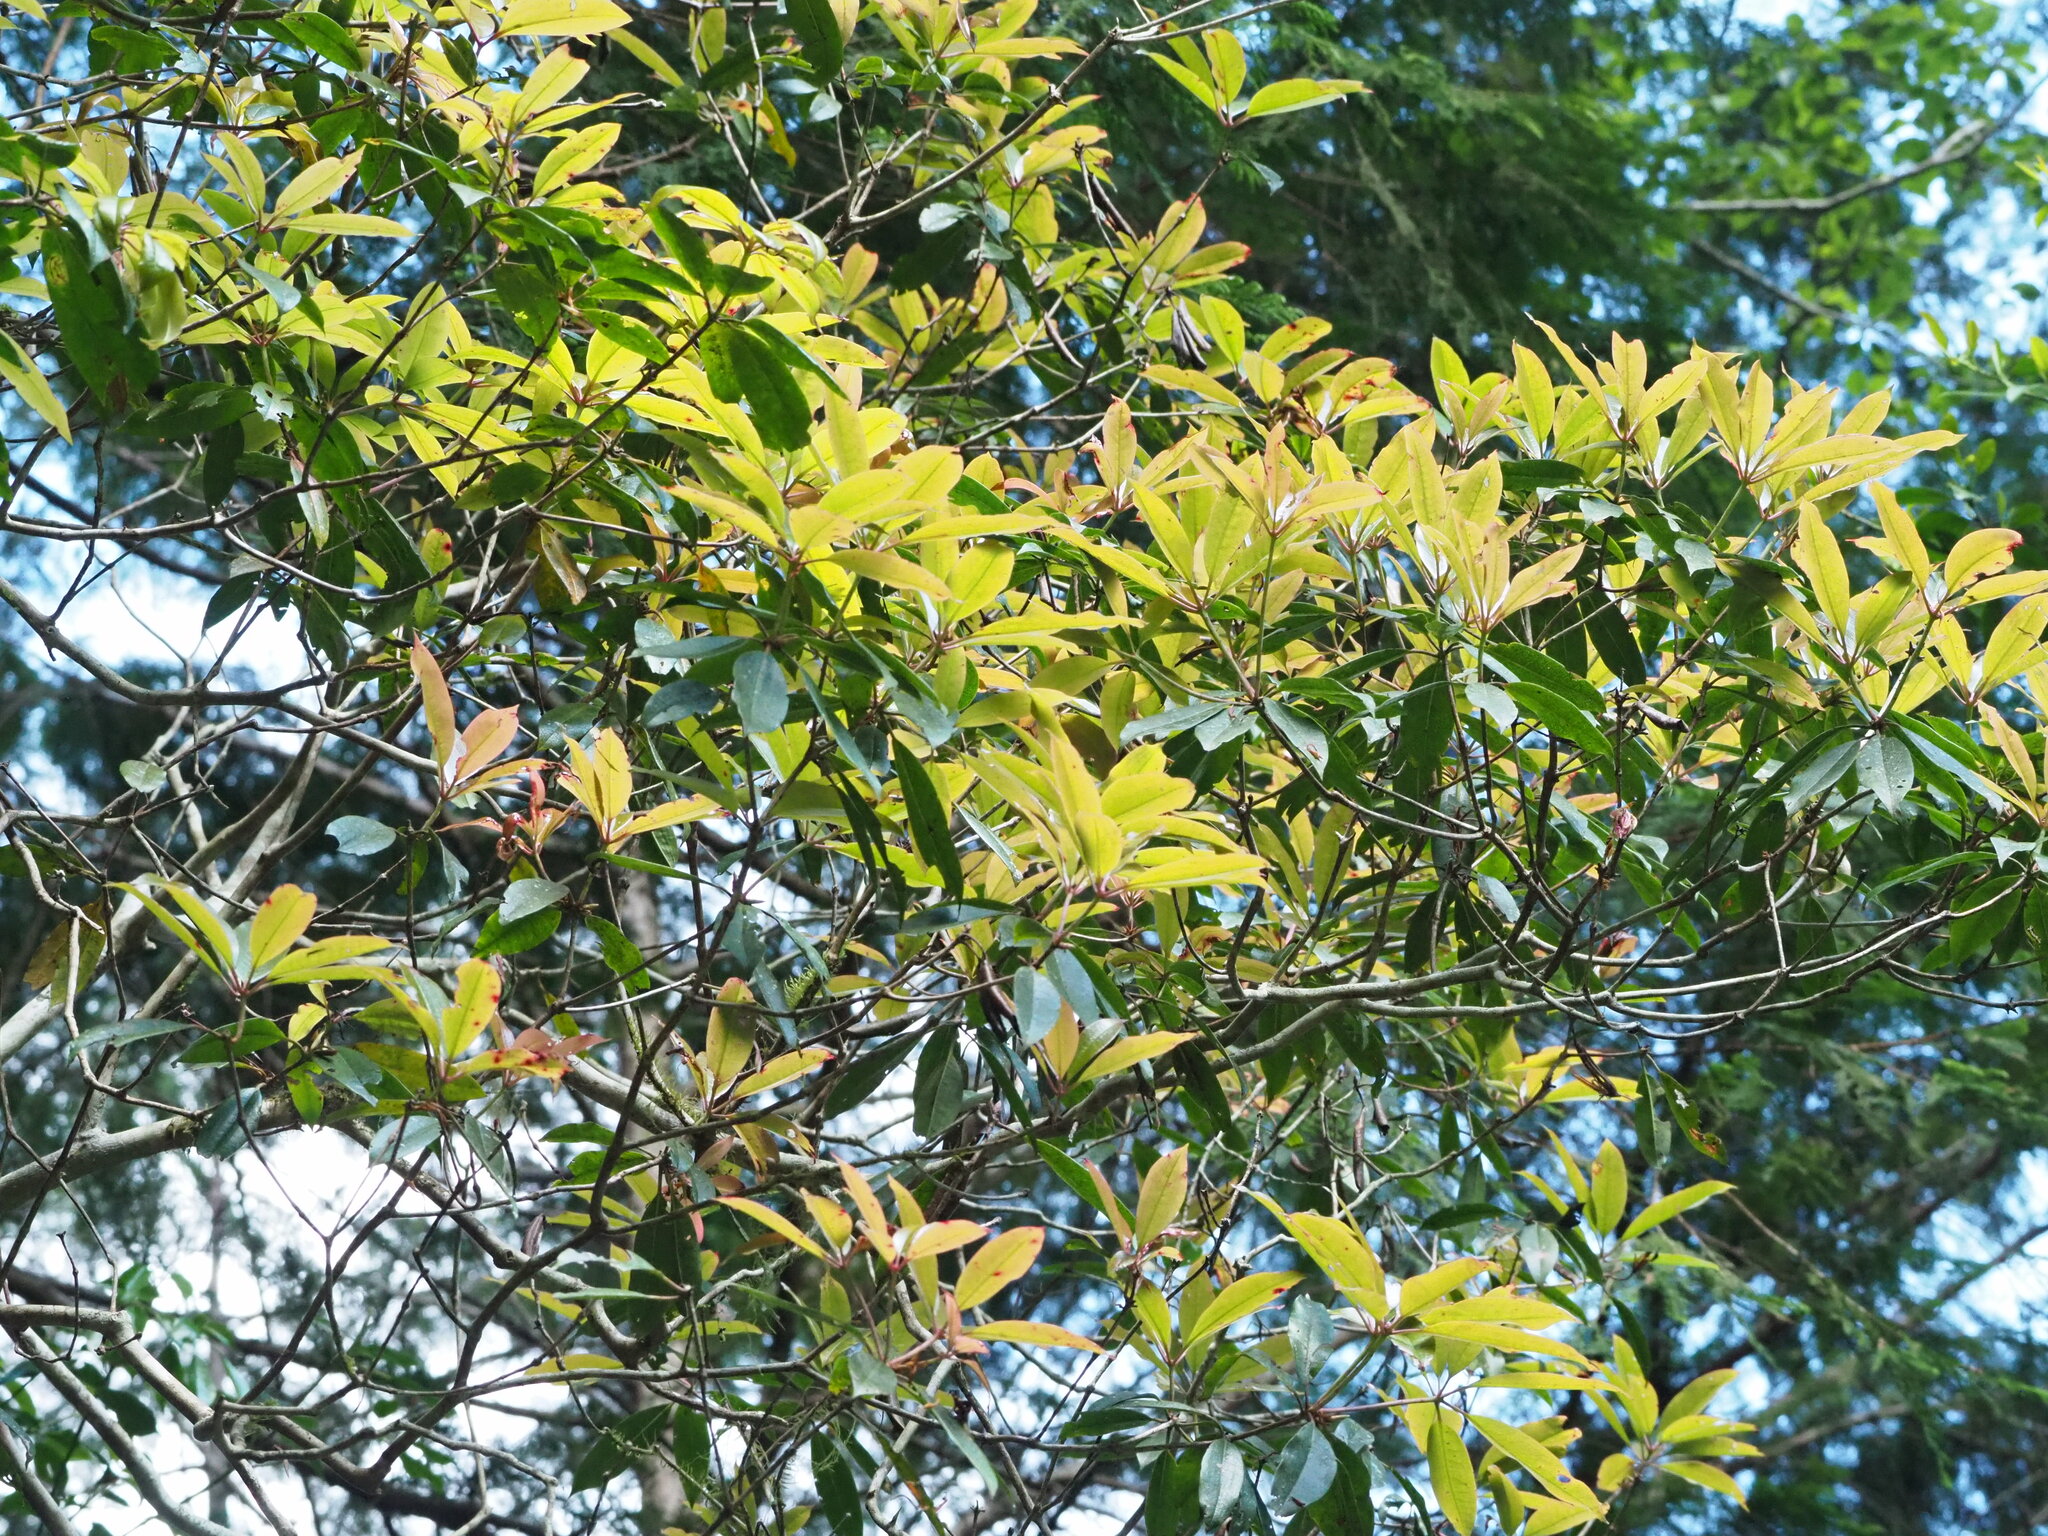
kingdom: Plantae
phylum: Tracheophyta
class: Magnoliopsida
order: Ericales
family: Ericaceae
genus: Rhododendron
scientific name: Rhododendron latoucheae
